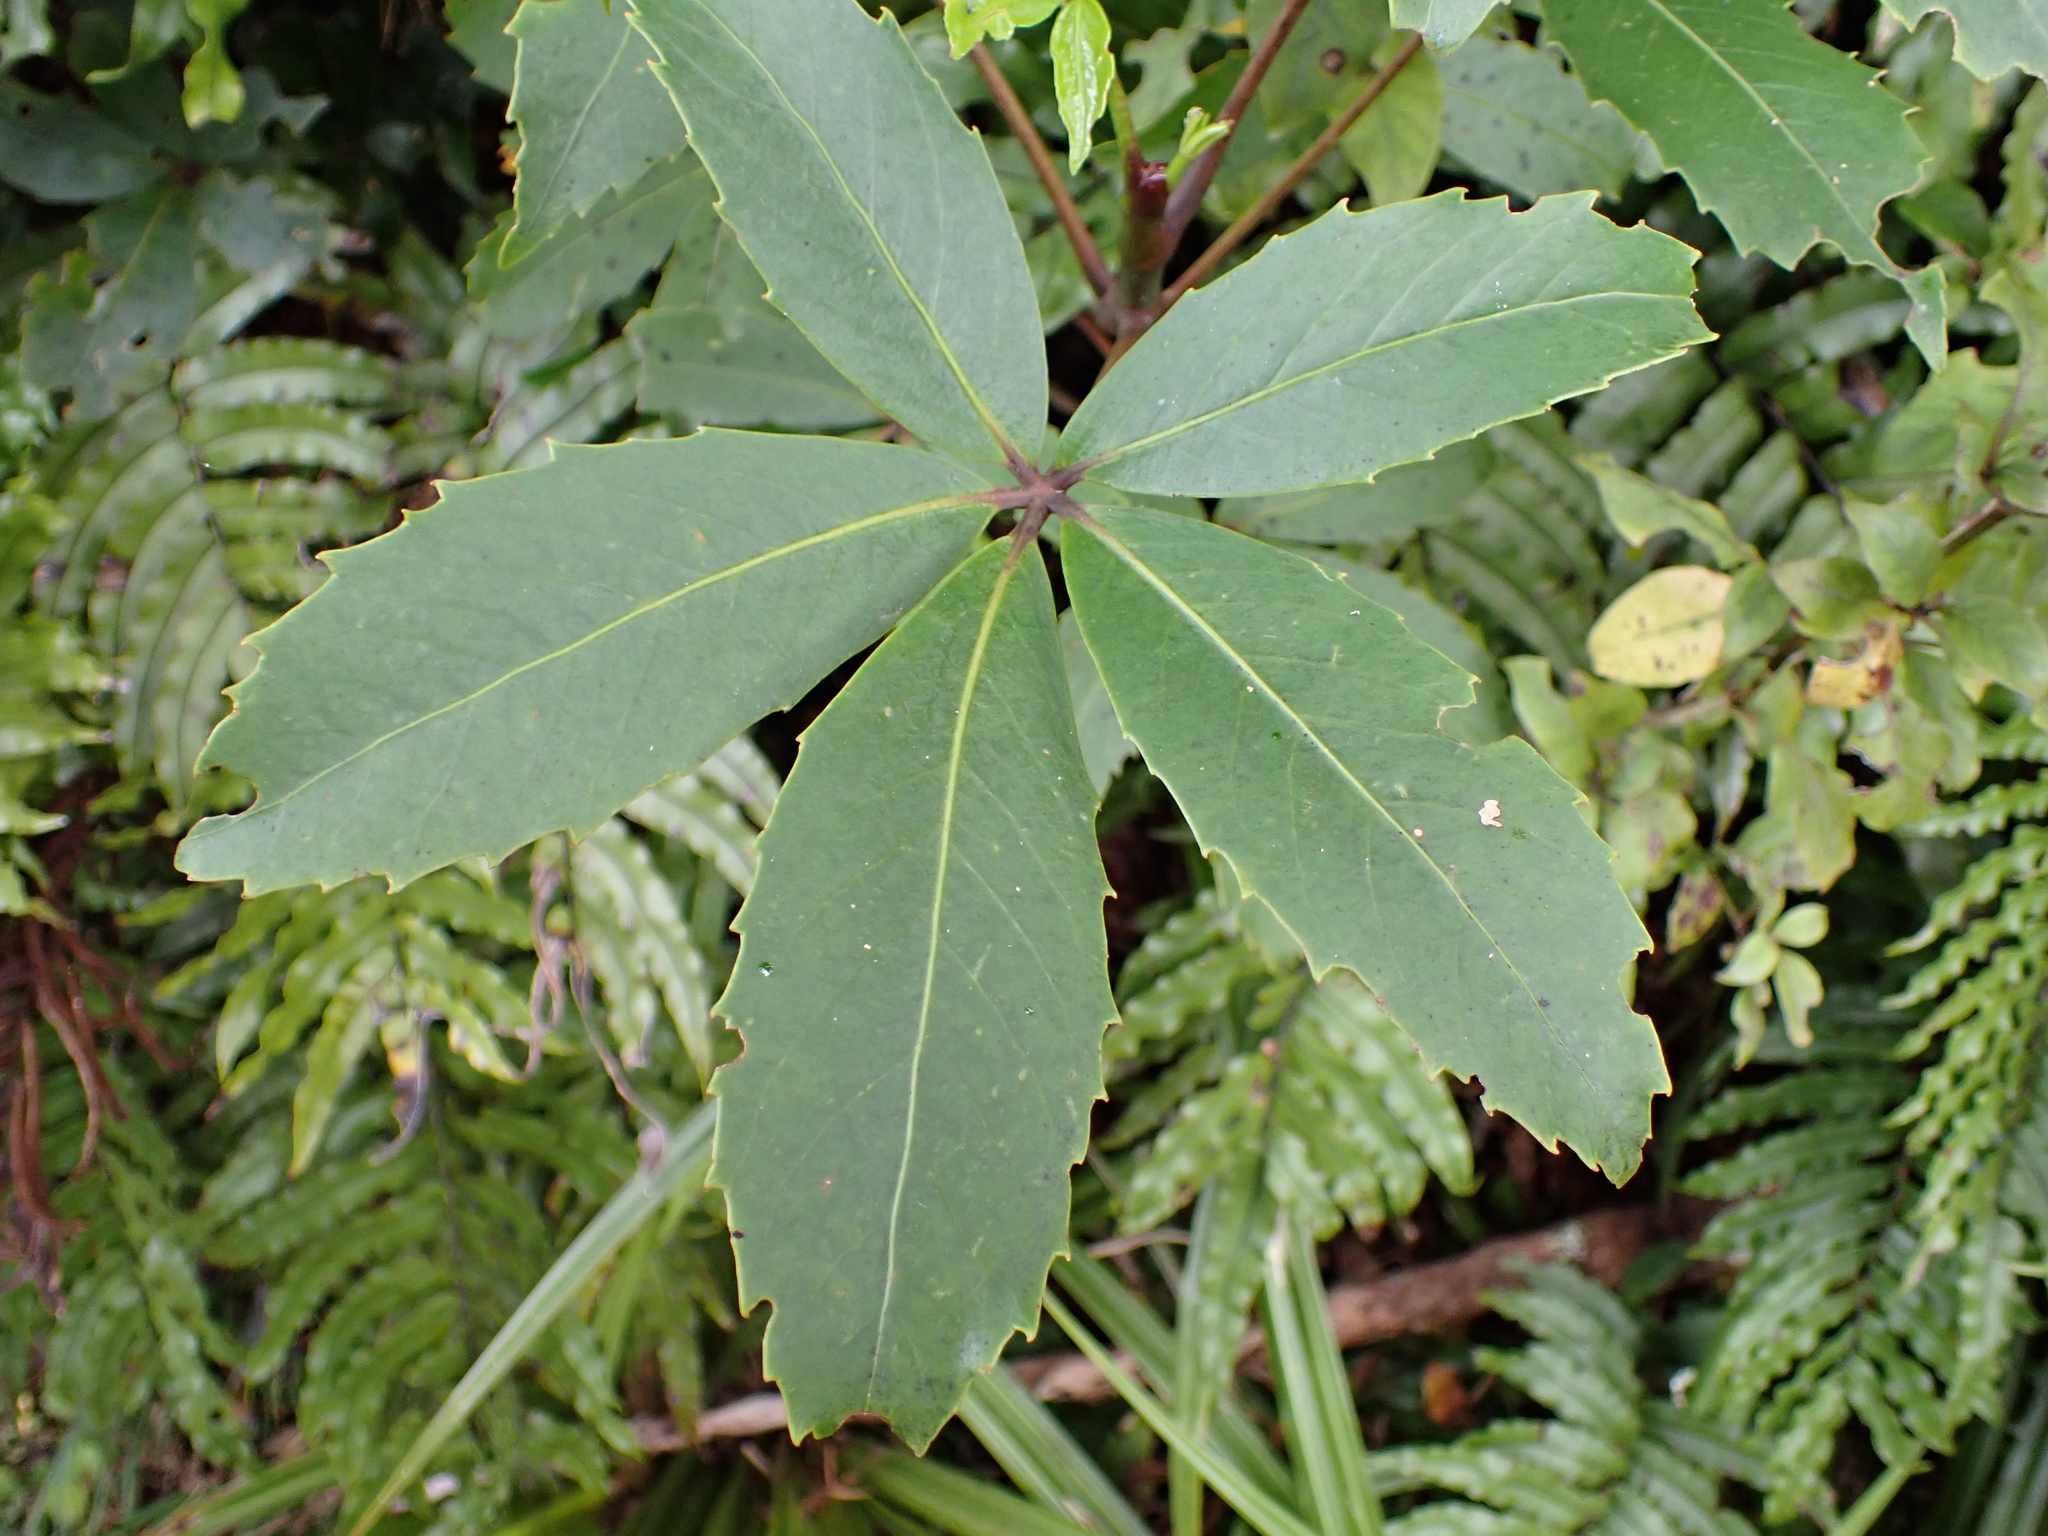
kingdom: Plantae
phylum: Tracheophyta
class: Magnoliopsida
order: Apiales
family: Araliaceae
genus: Neopanax
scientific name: Neopanax colensoi
